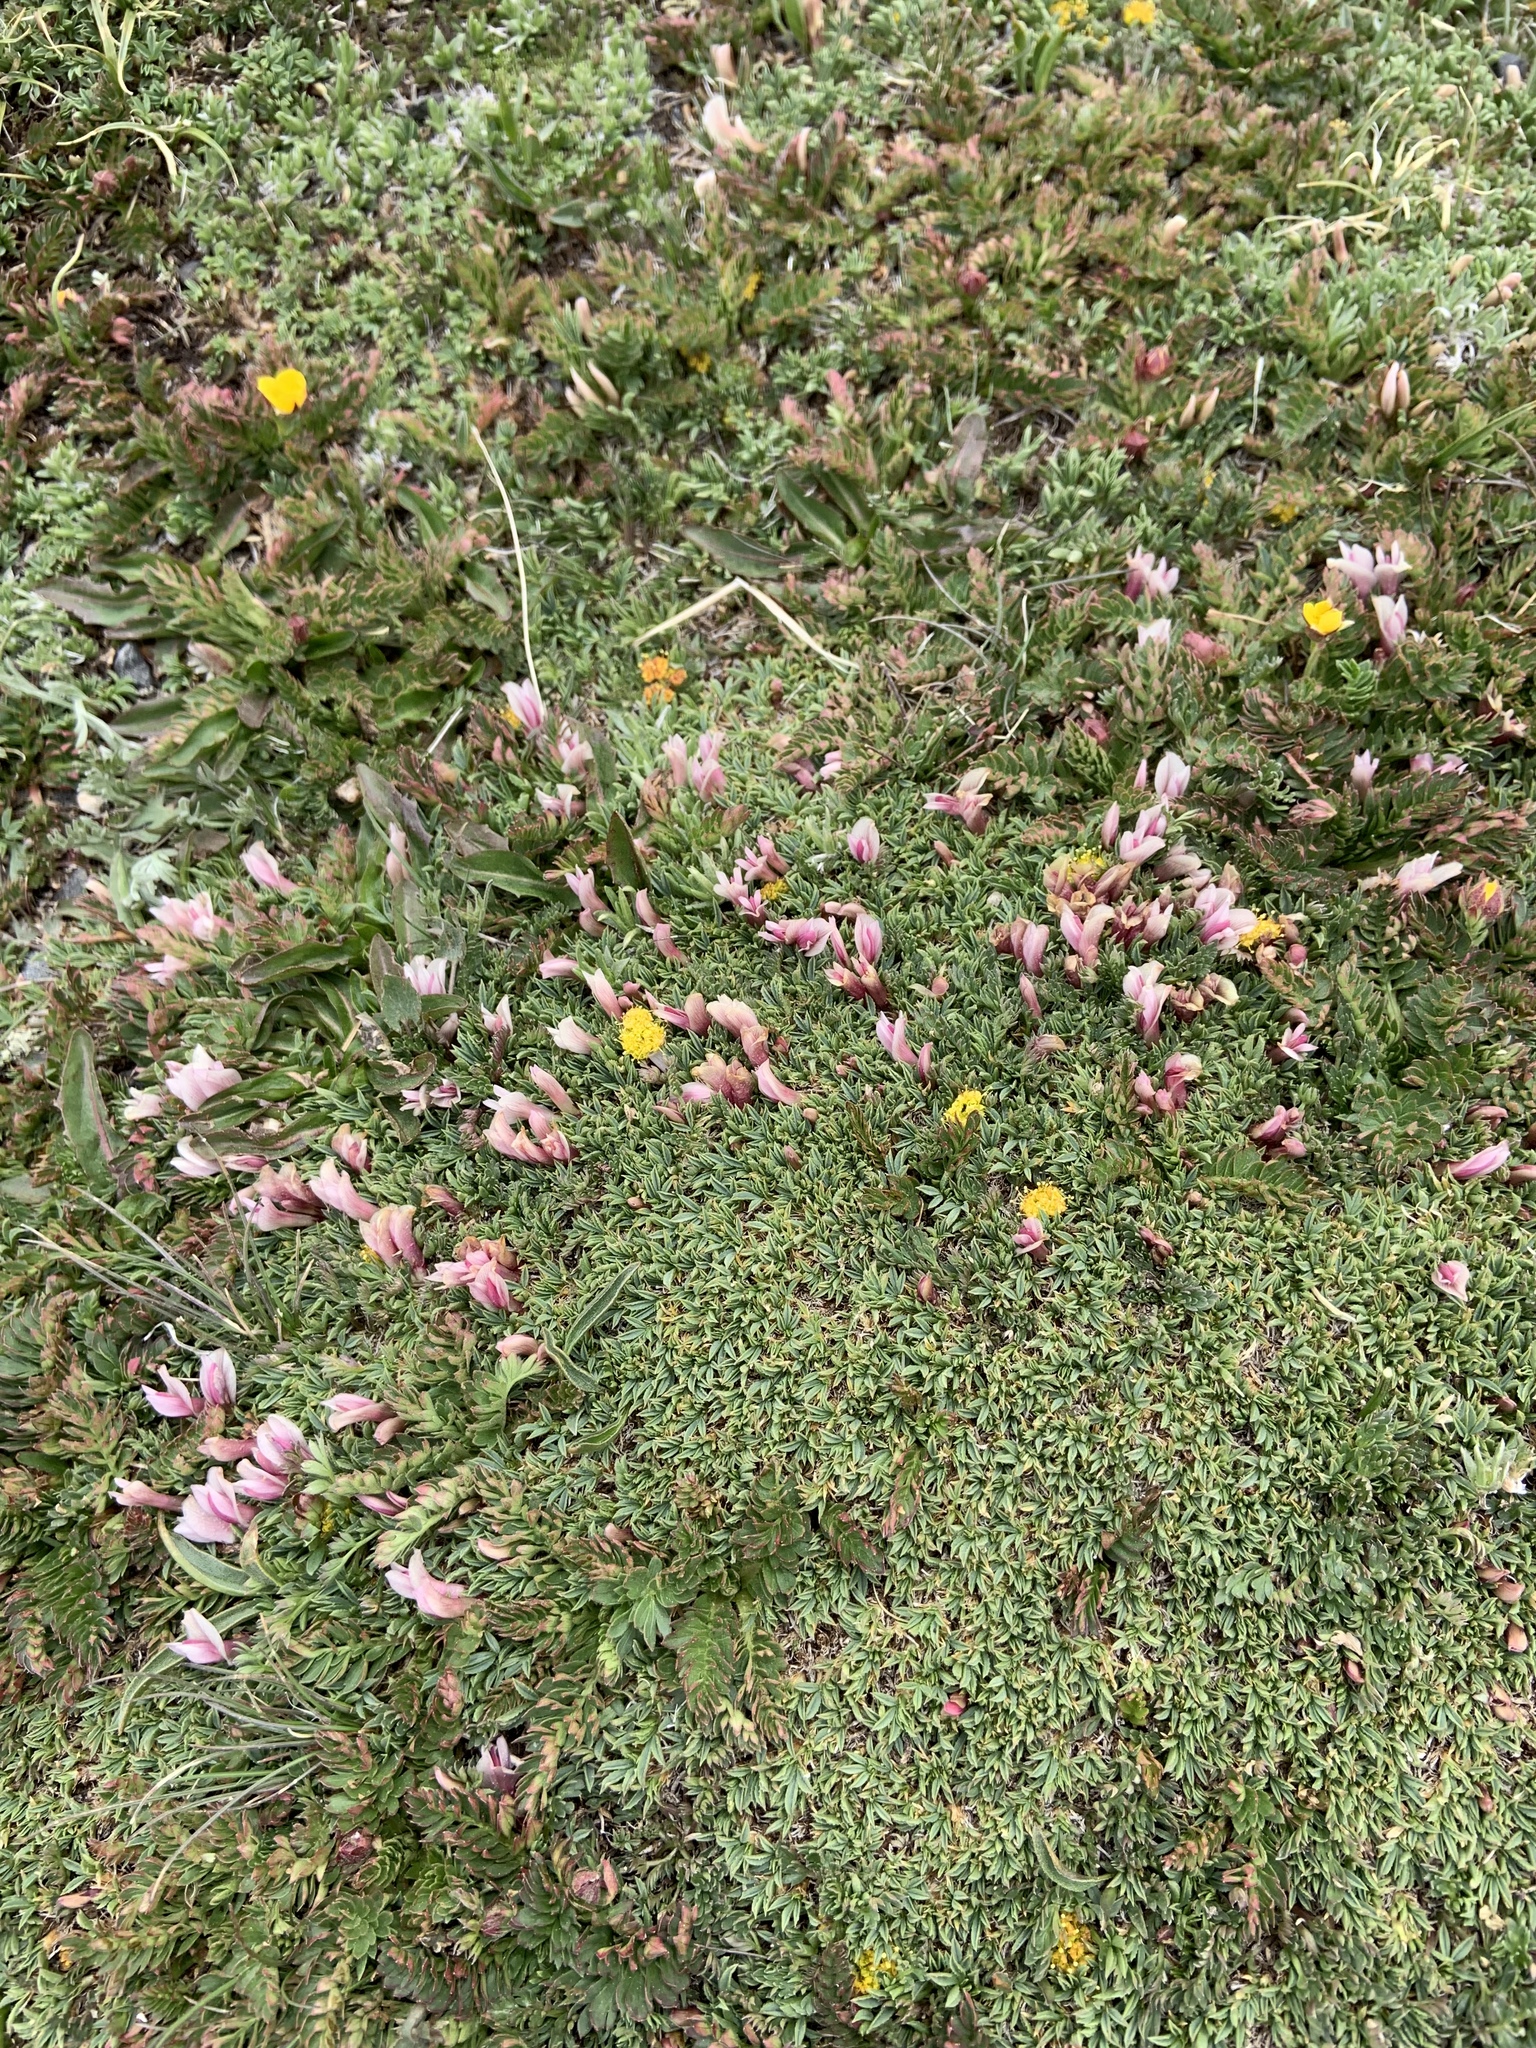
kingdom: Plantae
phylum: Tracheophyta
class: Magnoliopsida
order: Fabales
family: Fabaceae
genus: Trifolium
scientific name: Trifolium nanum
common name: Tundra clover
